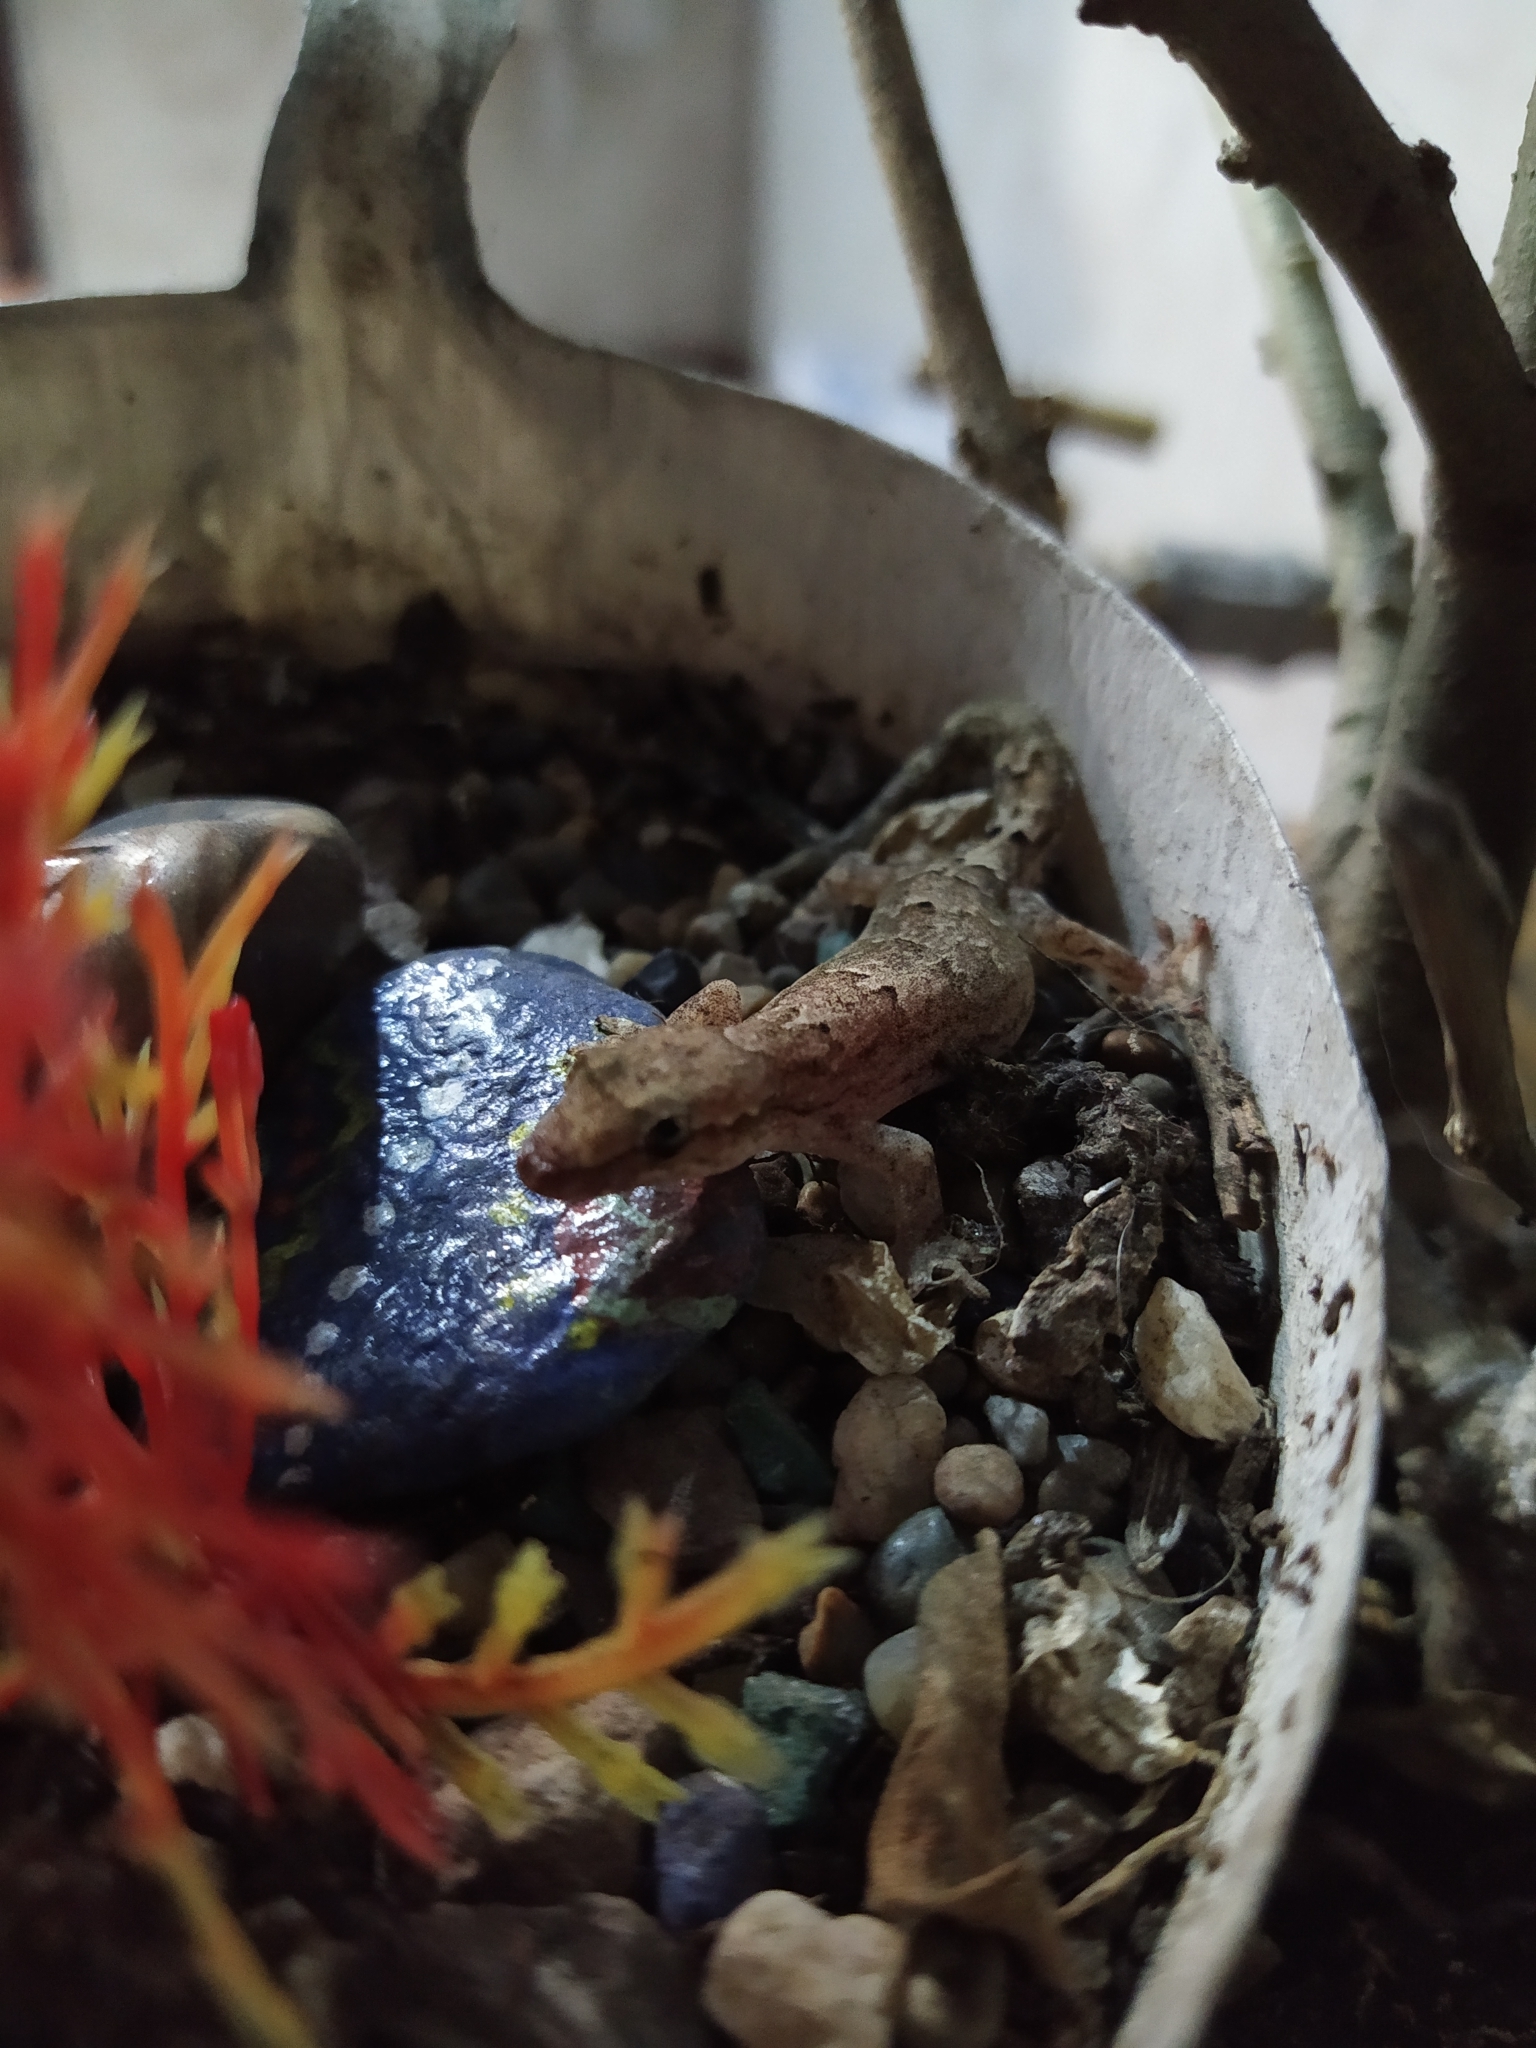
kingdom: Animalia
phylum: Chordata
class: Squamata
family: Gekkonidae
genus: Lepidodactylus
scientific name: Lepidodactylus lugubris
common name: Mourning gecko
